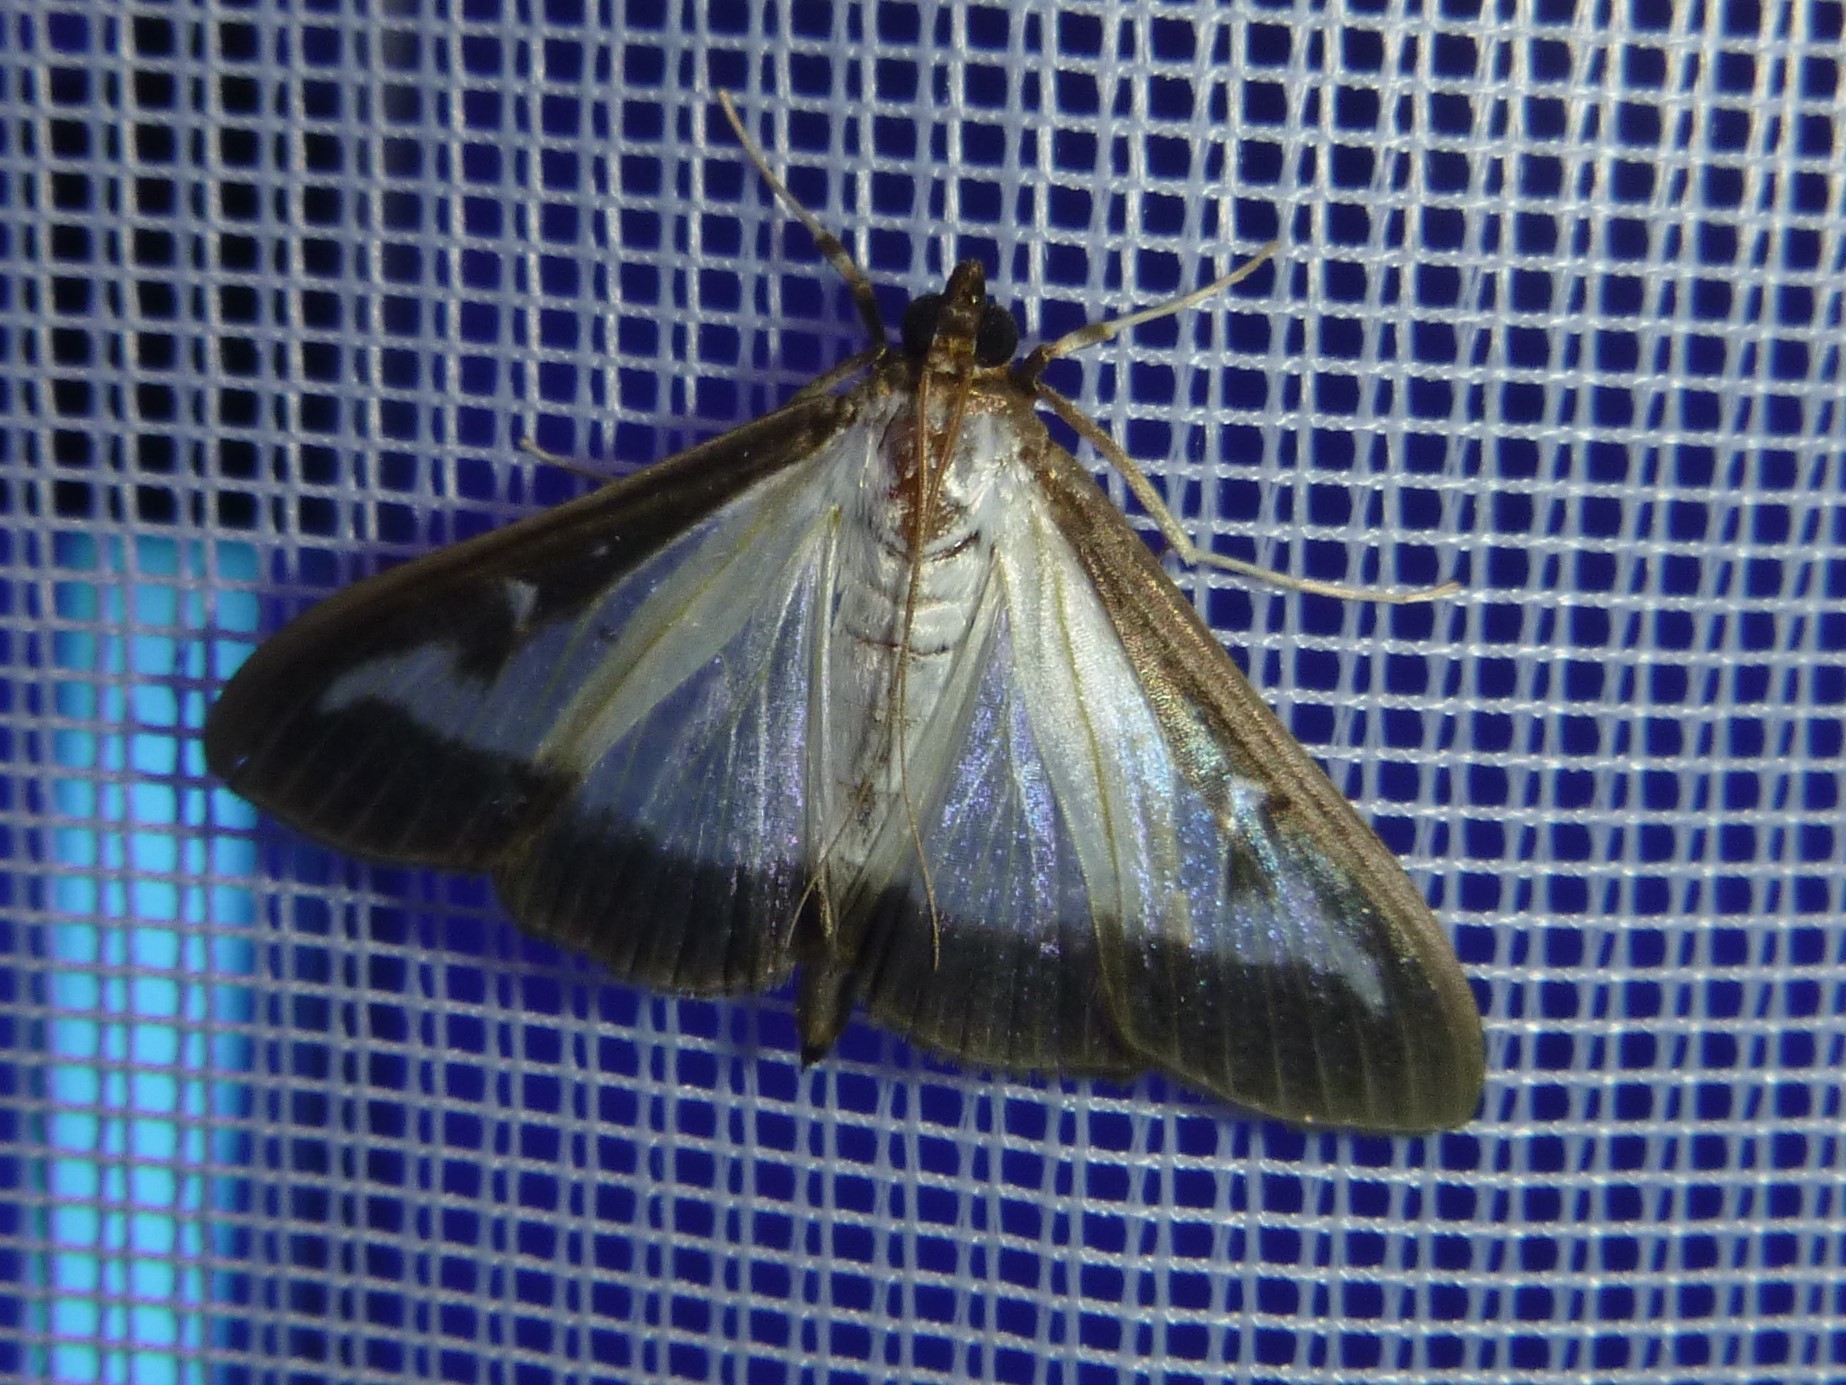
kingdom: Animalia
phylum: Arthropoda
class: Insecta
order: Lepidoptera
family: Crambidae
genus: Cydalima
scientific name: Cydalima perspectalis
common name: Box tree moth
